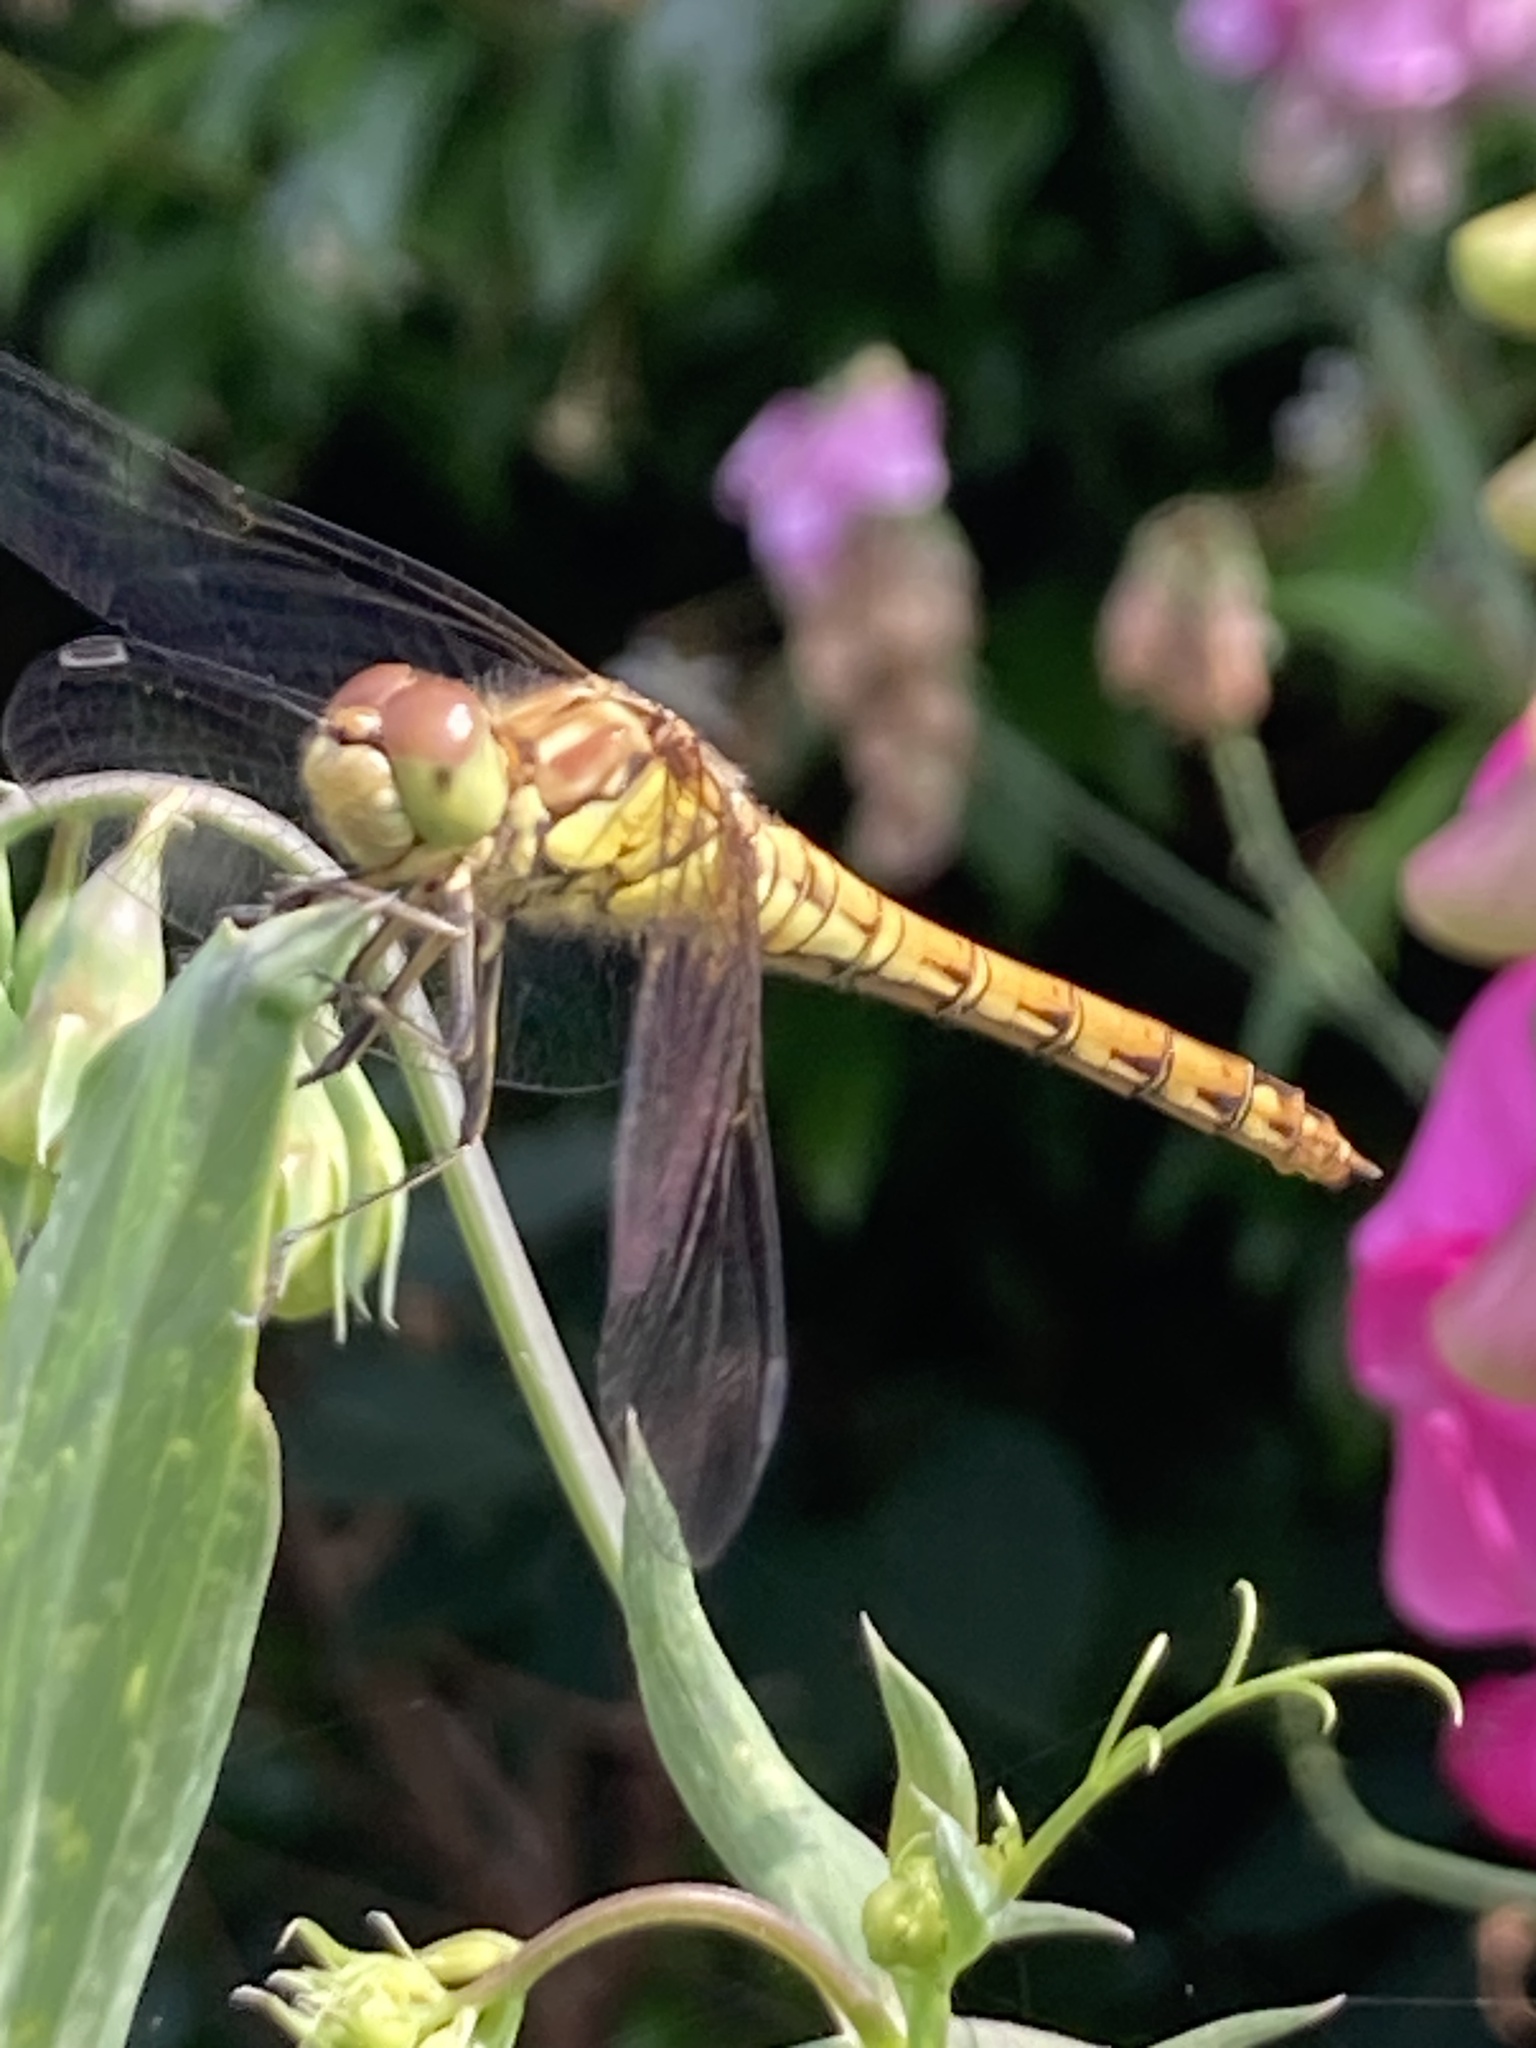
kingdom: Animalia
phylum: Arthropoda
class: Insecta
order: Odonata
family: Libellulidae
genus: Sympetrum
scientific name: Sympetrum striolatum
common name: Common darter
